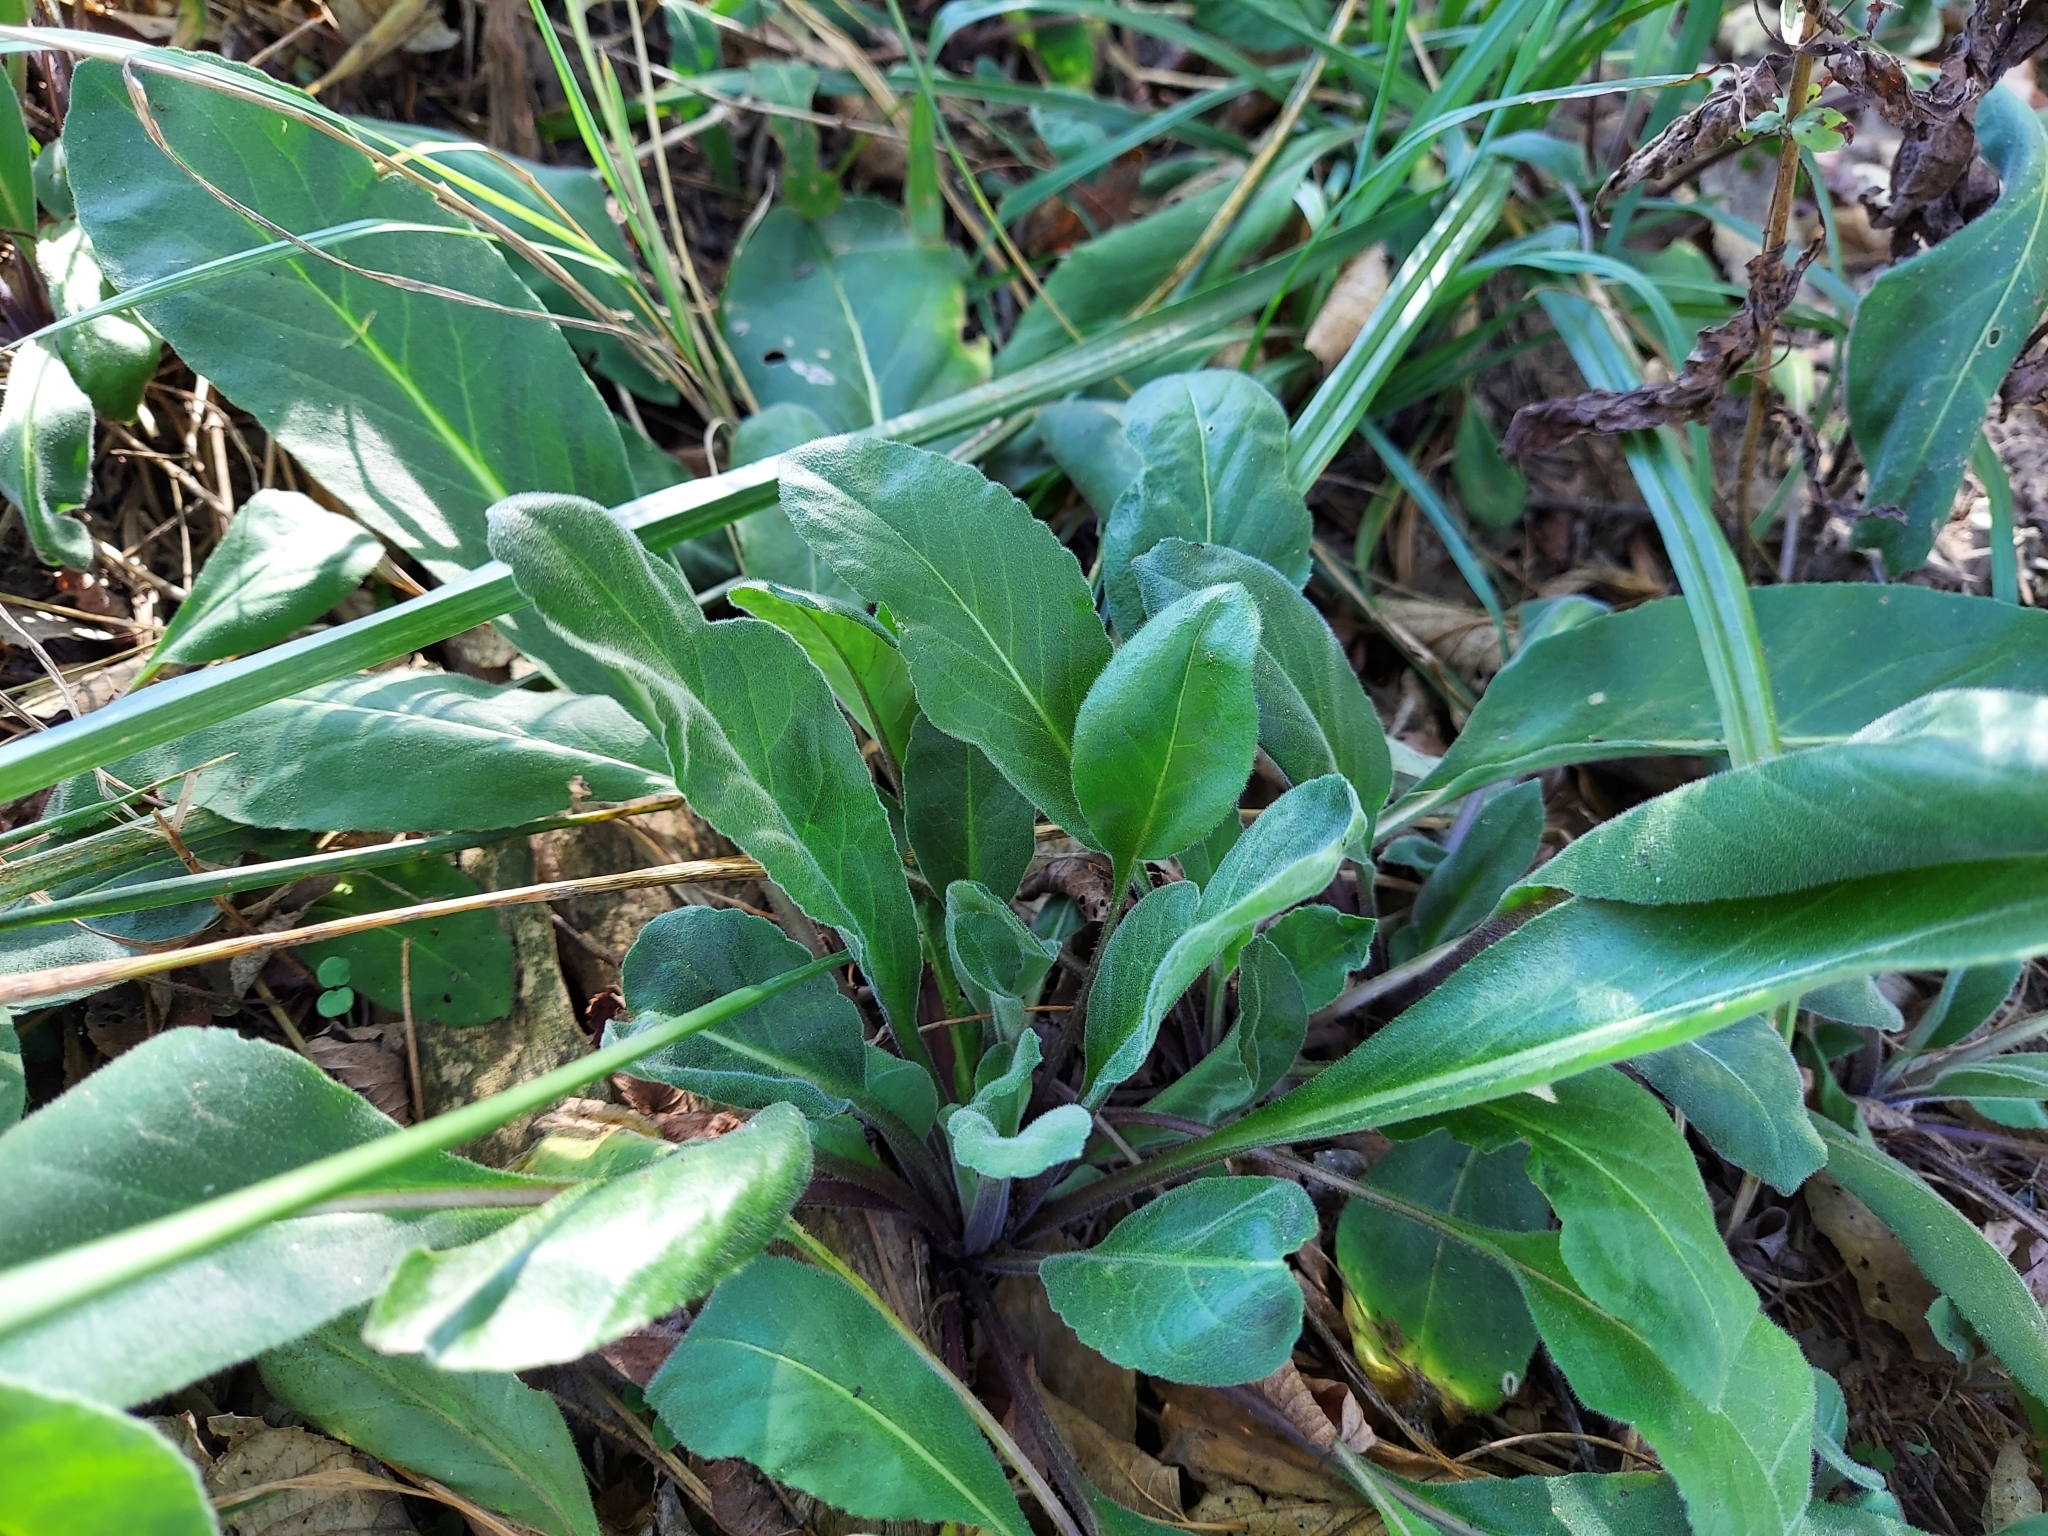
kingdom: Plantae
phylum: Tracheophyta
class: Magnoliopsida
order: Brassicales
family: Brassicaceae
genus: Hesperis
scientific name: Hesperis matronalis
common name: Dame's-violet
